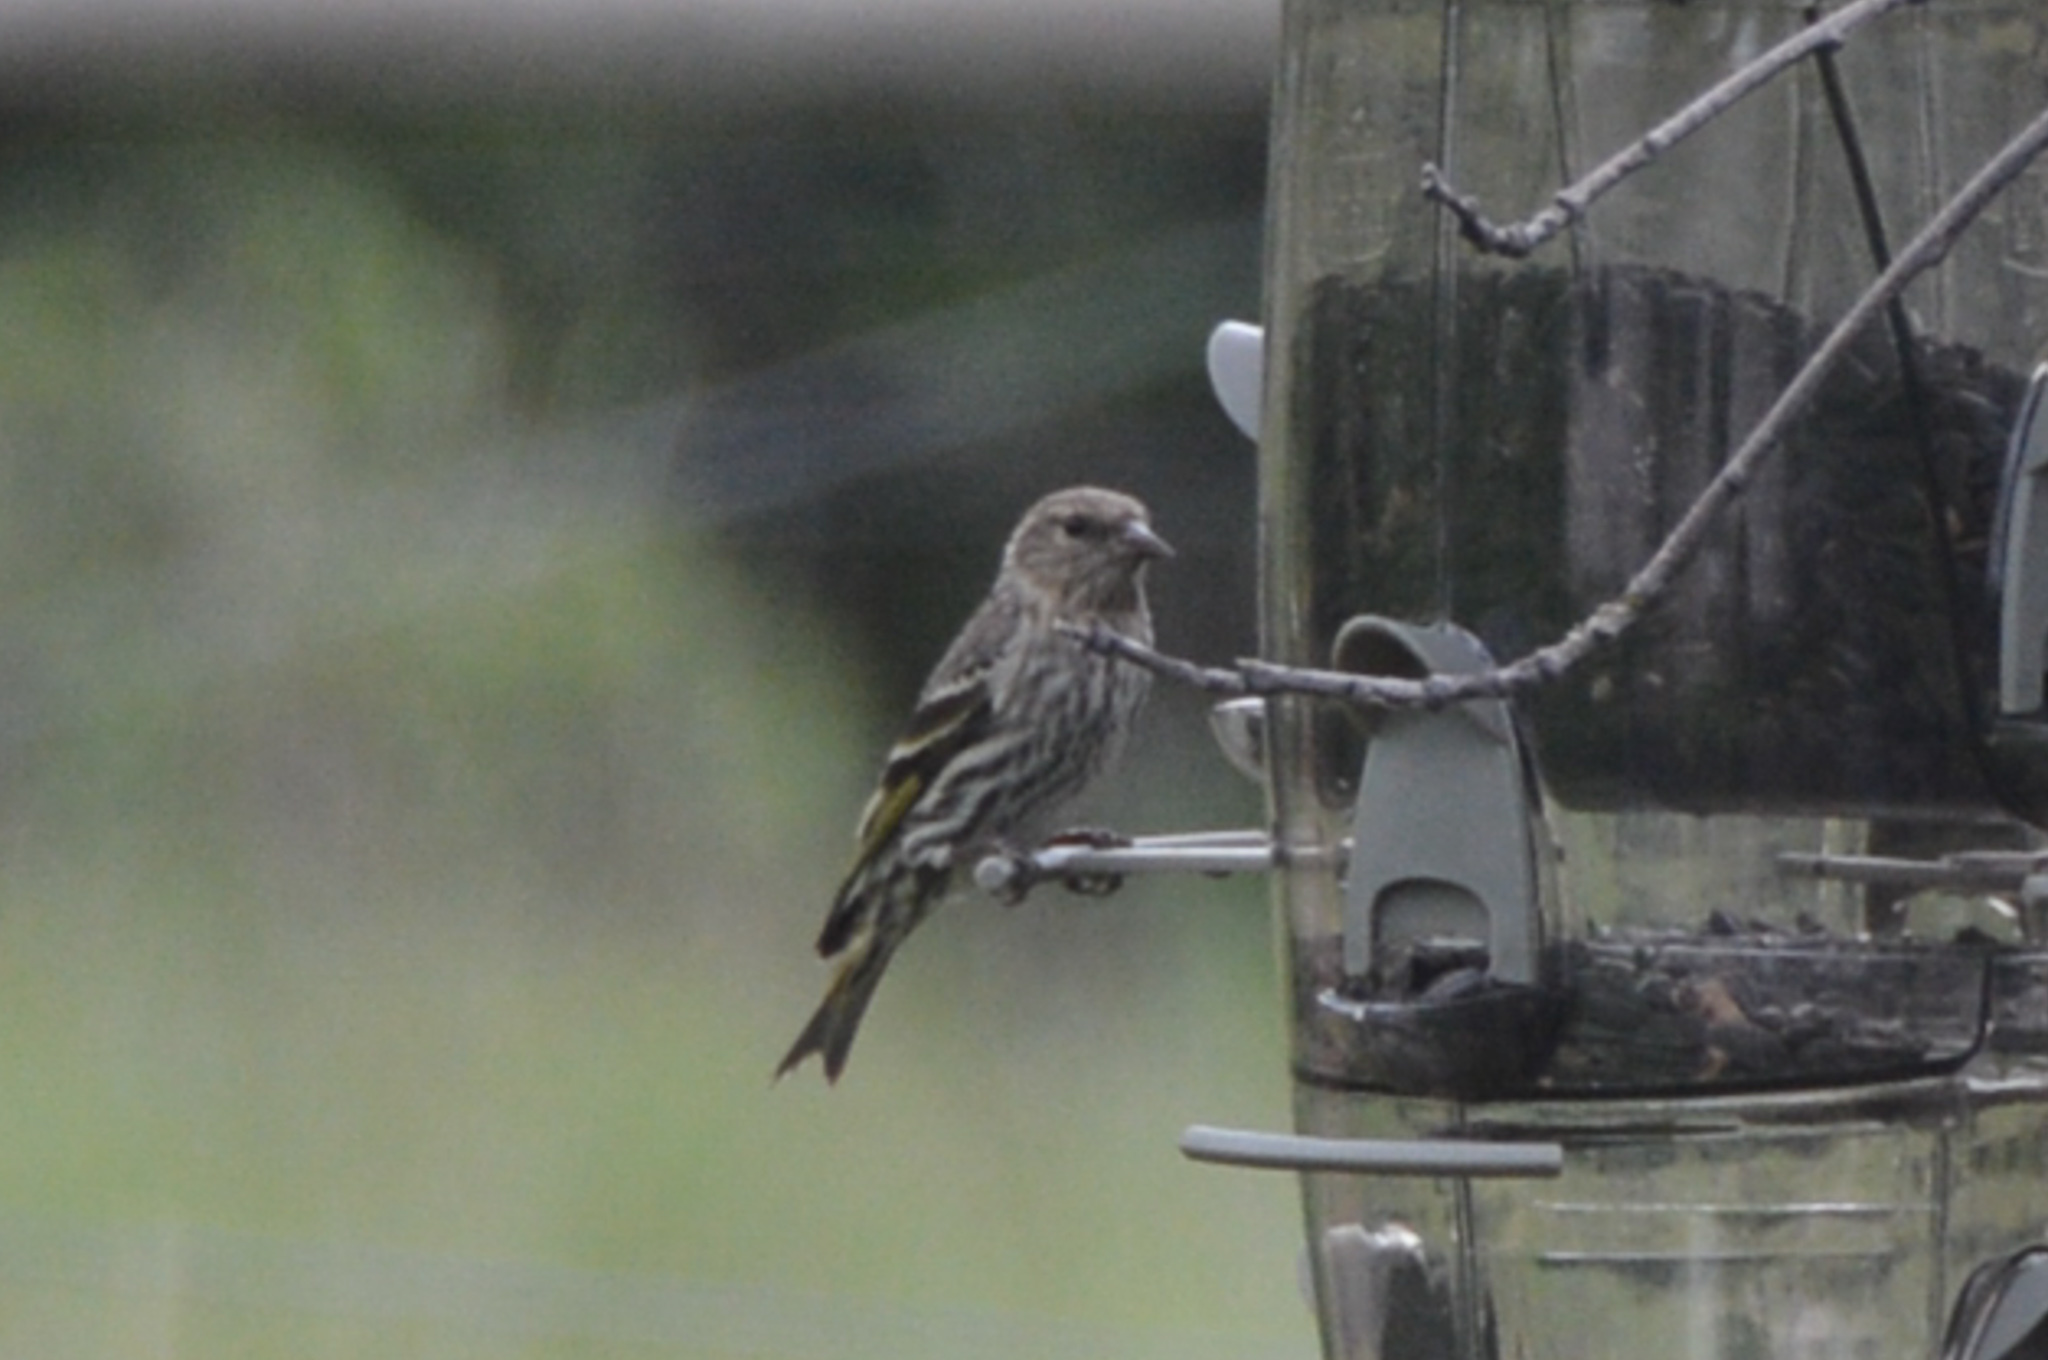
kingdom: Animalia
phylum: Chordata
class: Aves
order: Passeriformes
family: Fringillidae
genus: Spinus
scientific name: Spinus pinus
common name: Pine siskin
